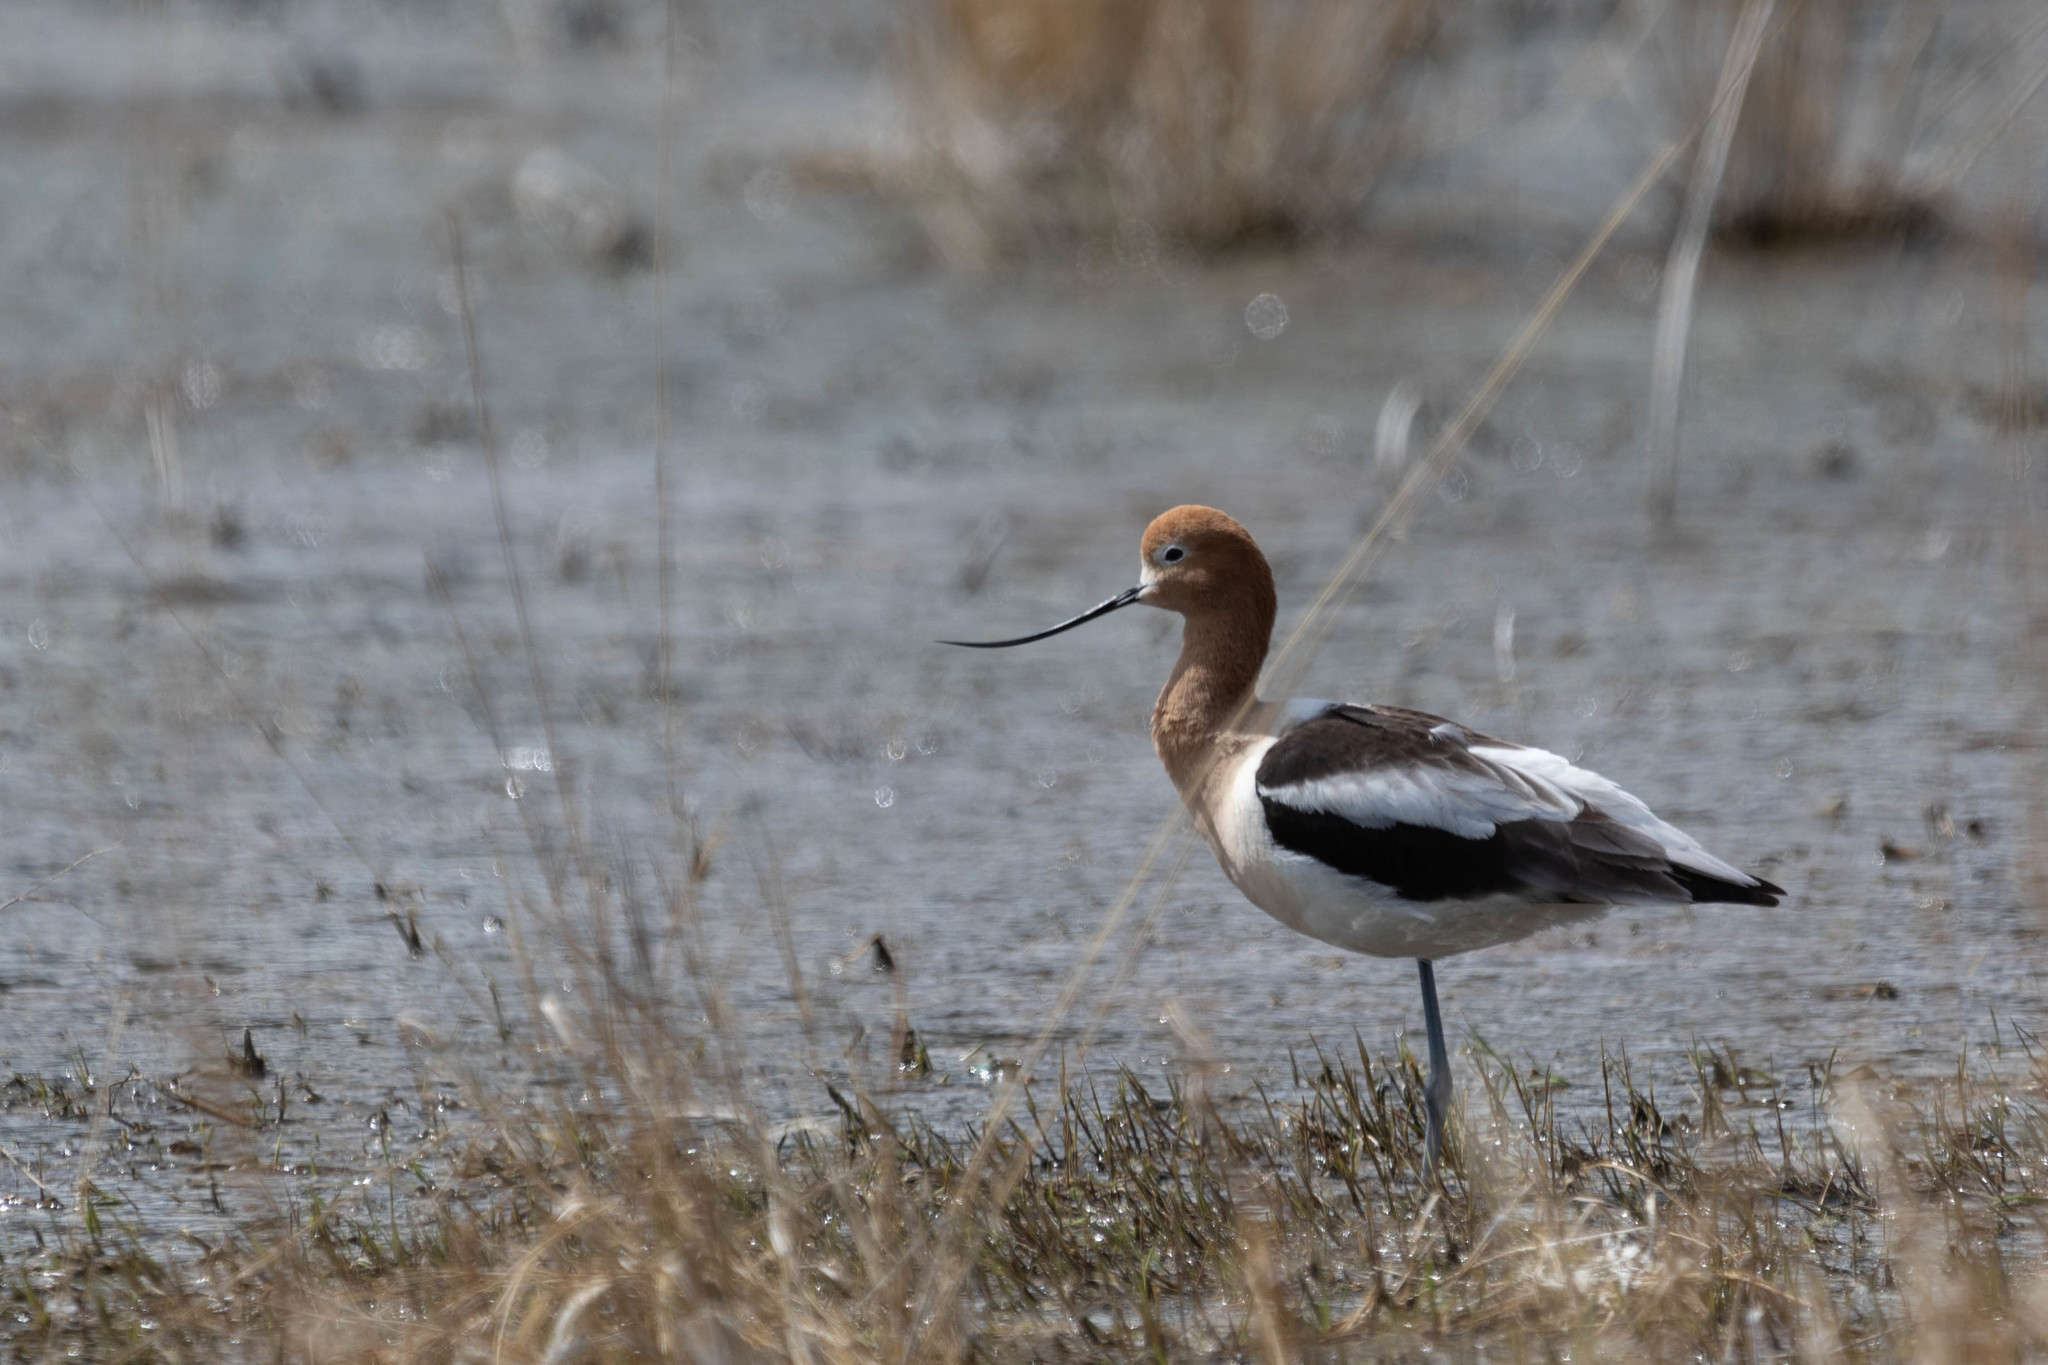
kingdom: Animalia
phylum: Chordata
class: Aves
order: Charadriiformes
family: Recurvirostridae
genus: Recurvirostra
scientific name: Recurvirostra americana
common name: American avocet
